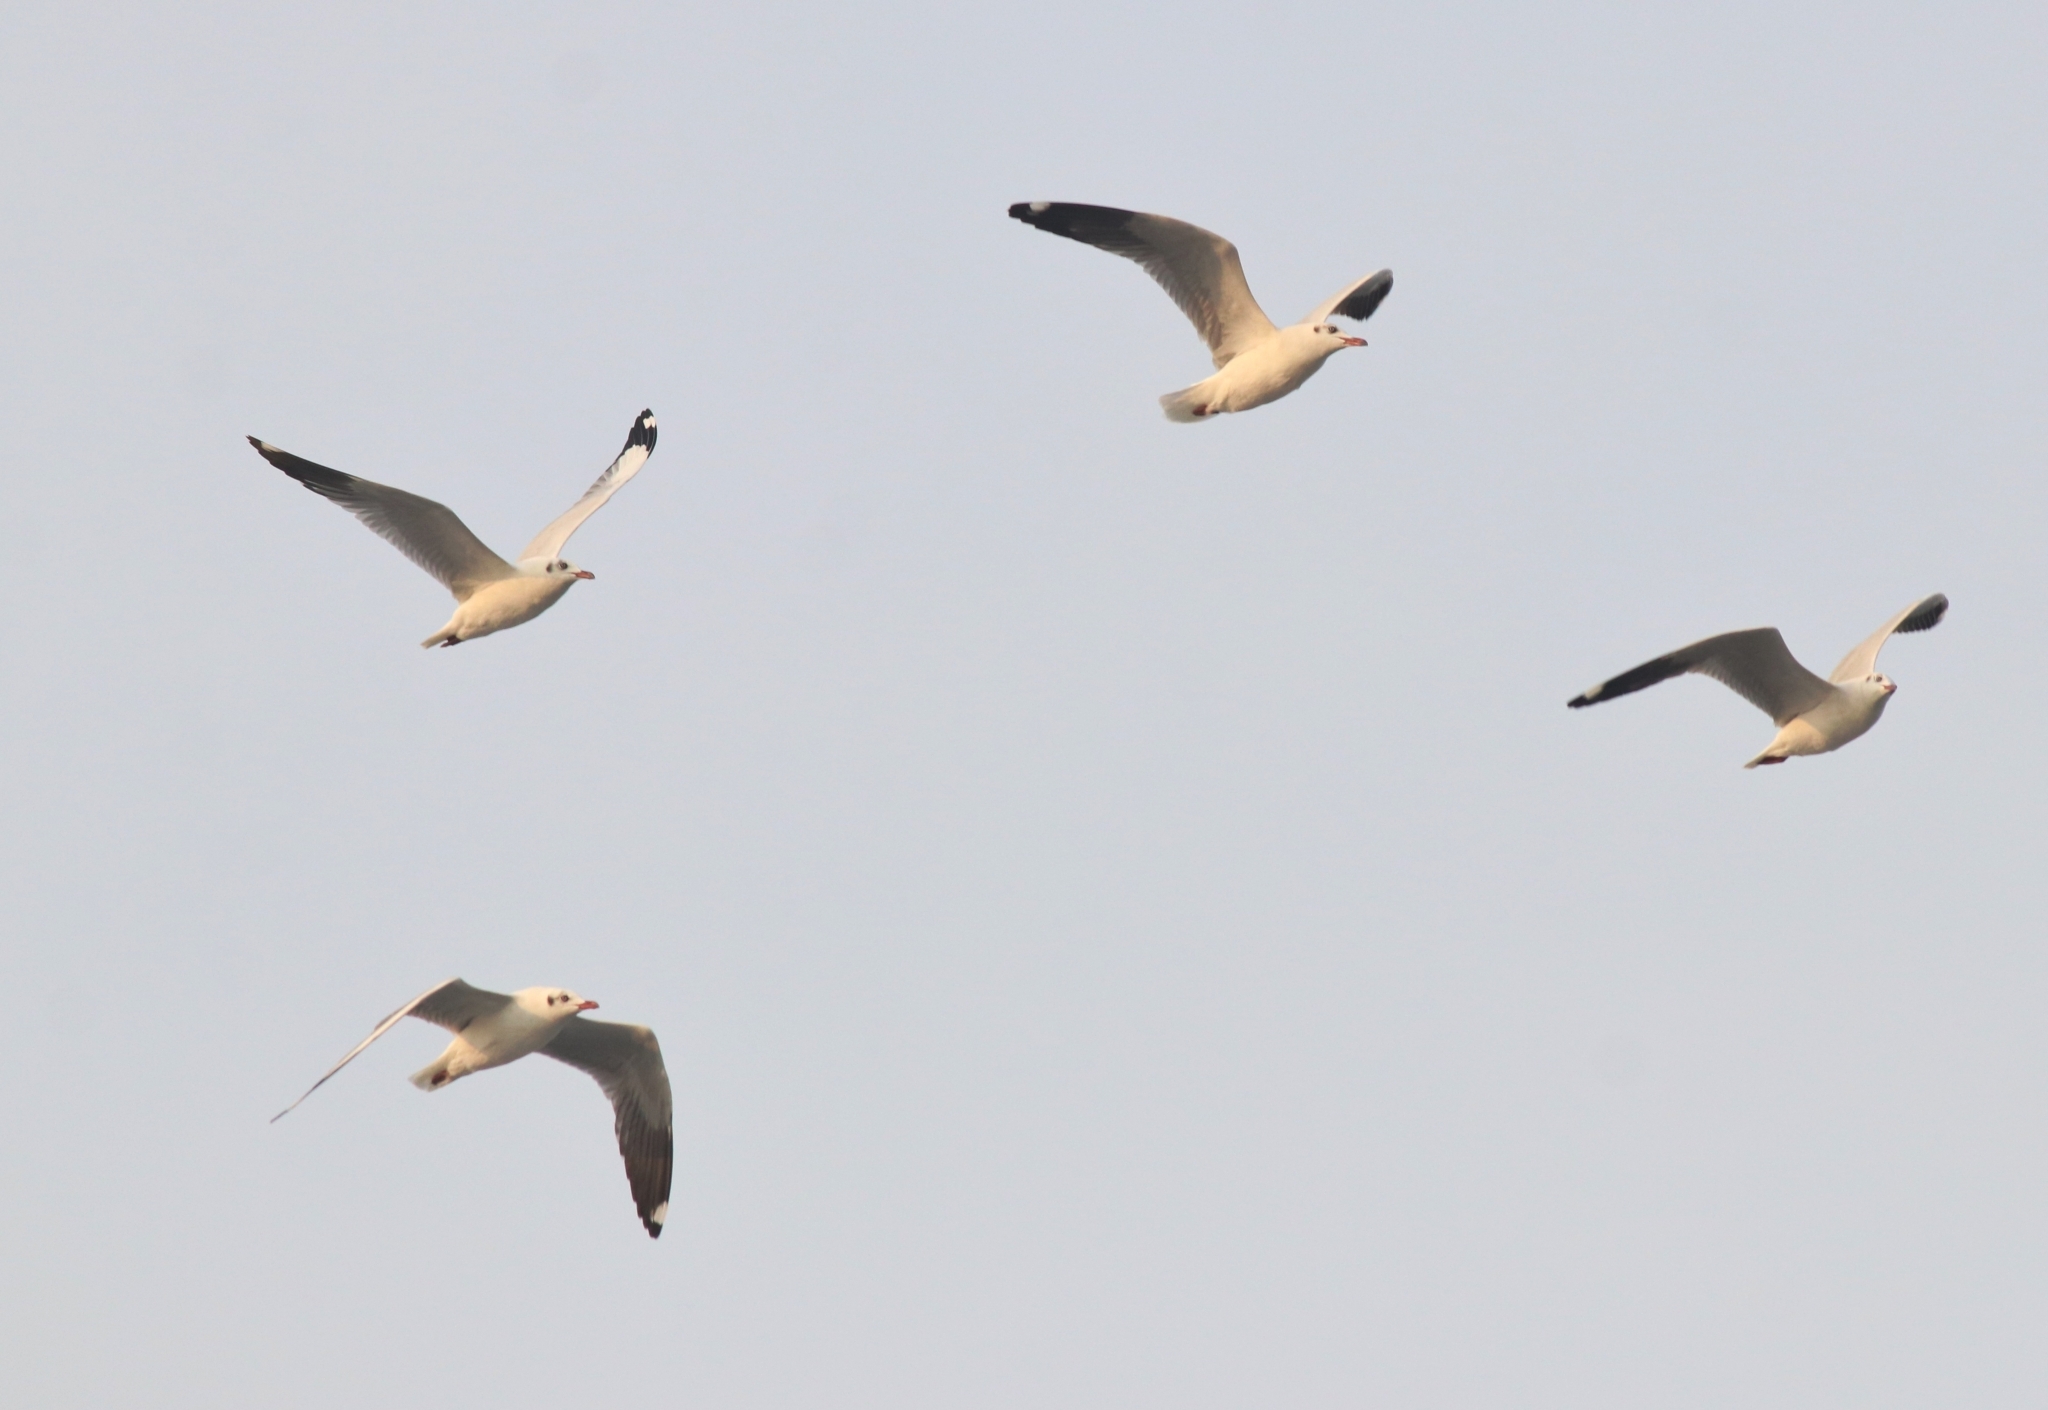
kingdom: Animalia
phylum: Chordata
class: Aves
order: Charadriiformes
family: Laridae
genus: Chroicocephalus
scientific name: Chroicocephalus brunnicephalus
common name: Brown-headed gull
